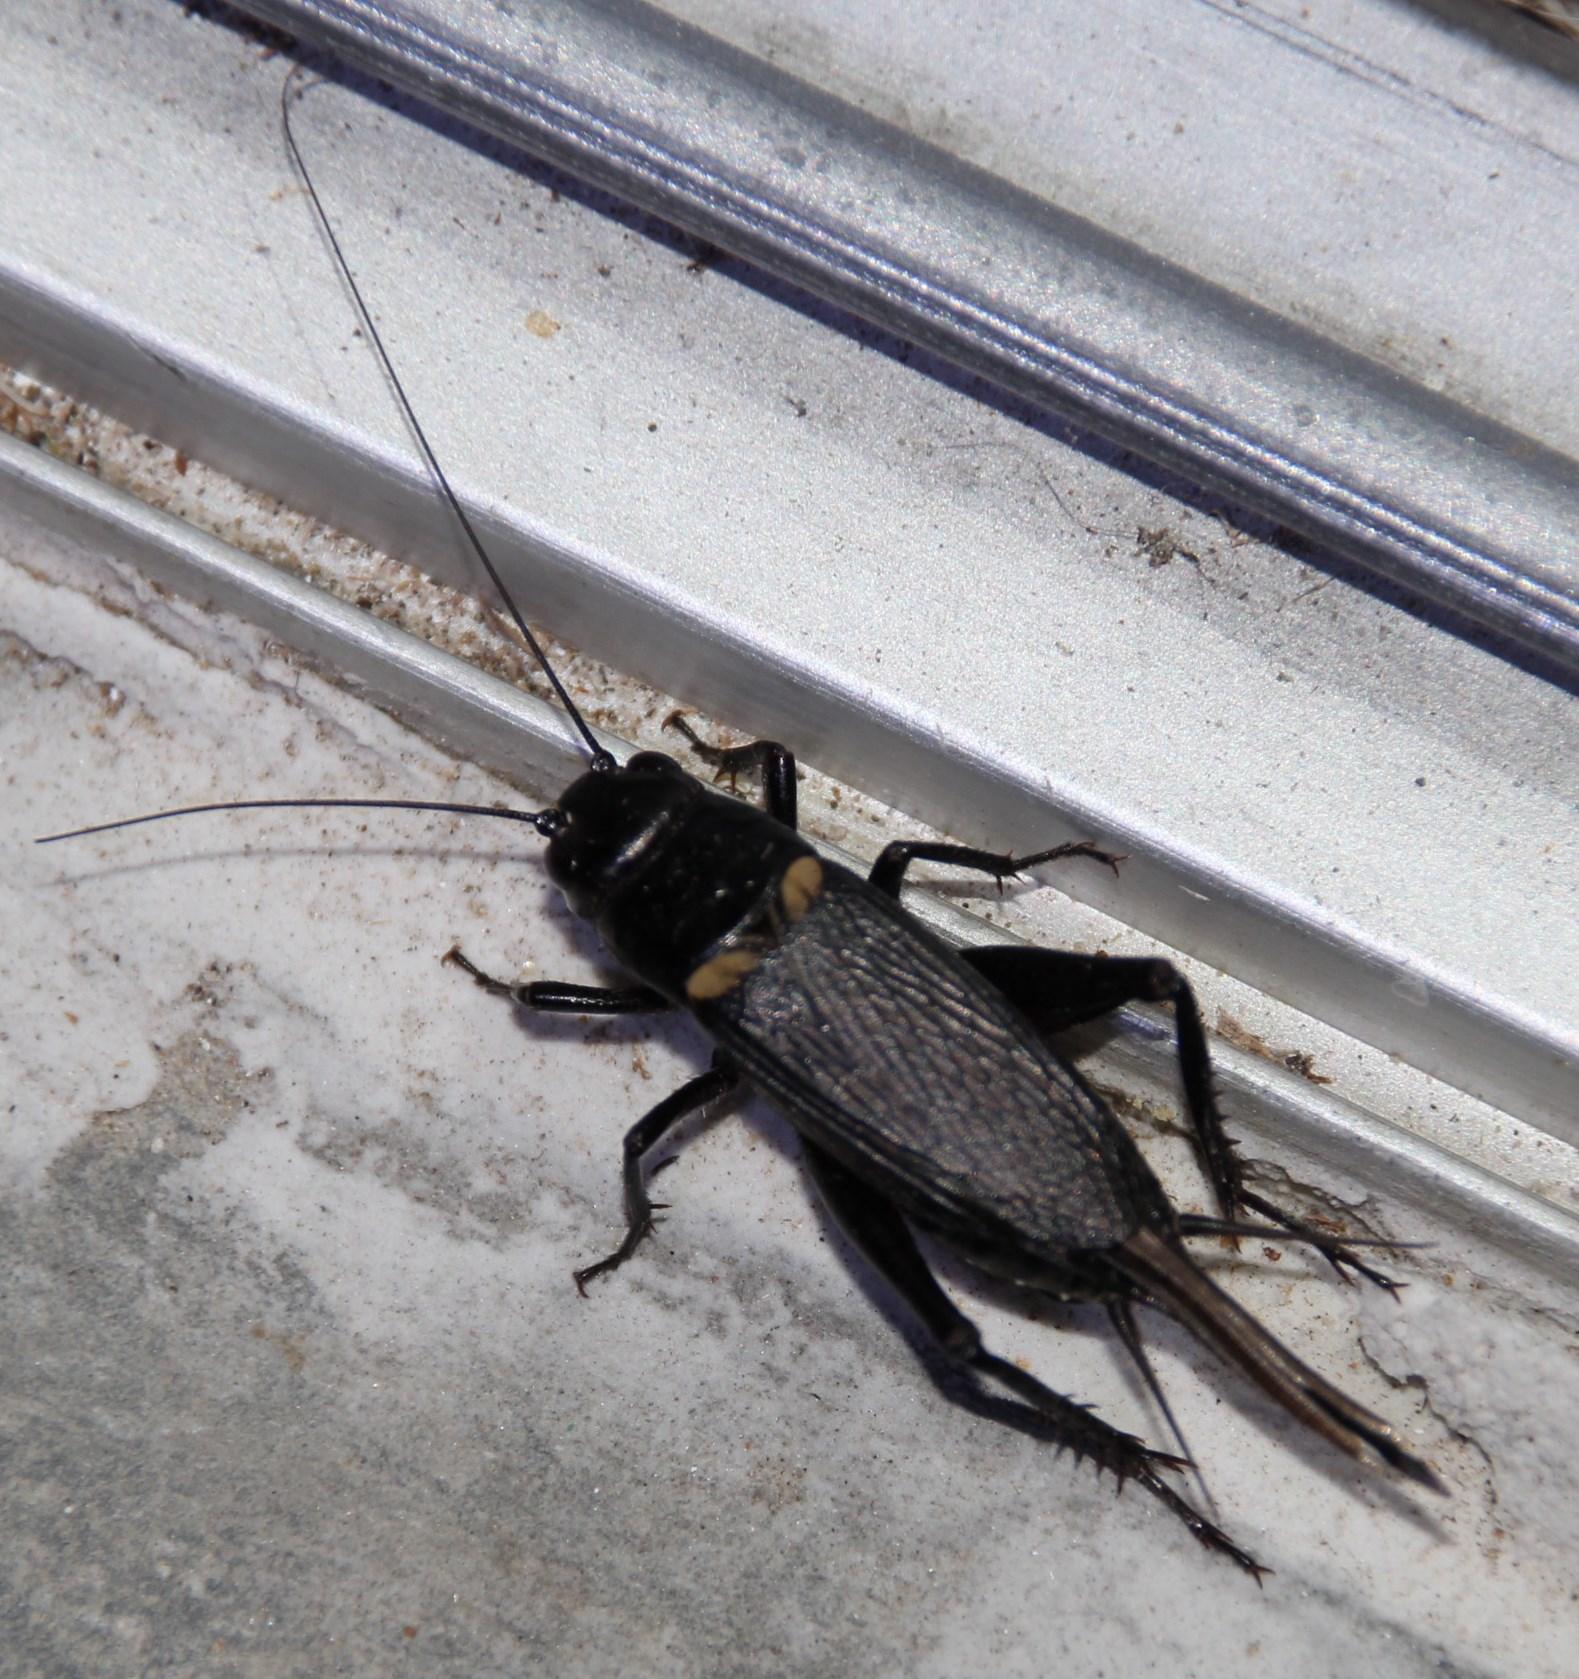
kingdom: Animalia
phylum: Arthropoda
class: Insecta
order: Orthoptera
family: Gryllidae
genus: Gryllus
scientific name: Gryllus bimaculatus
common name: Two-spotted cricket
